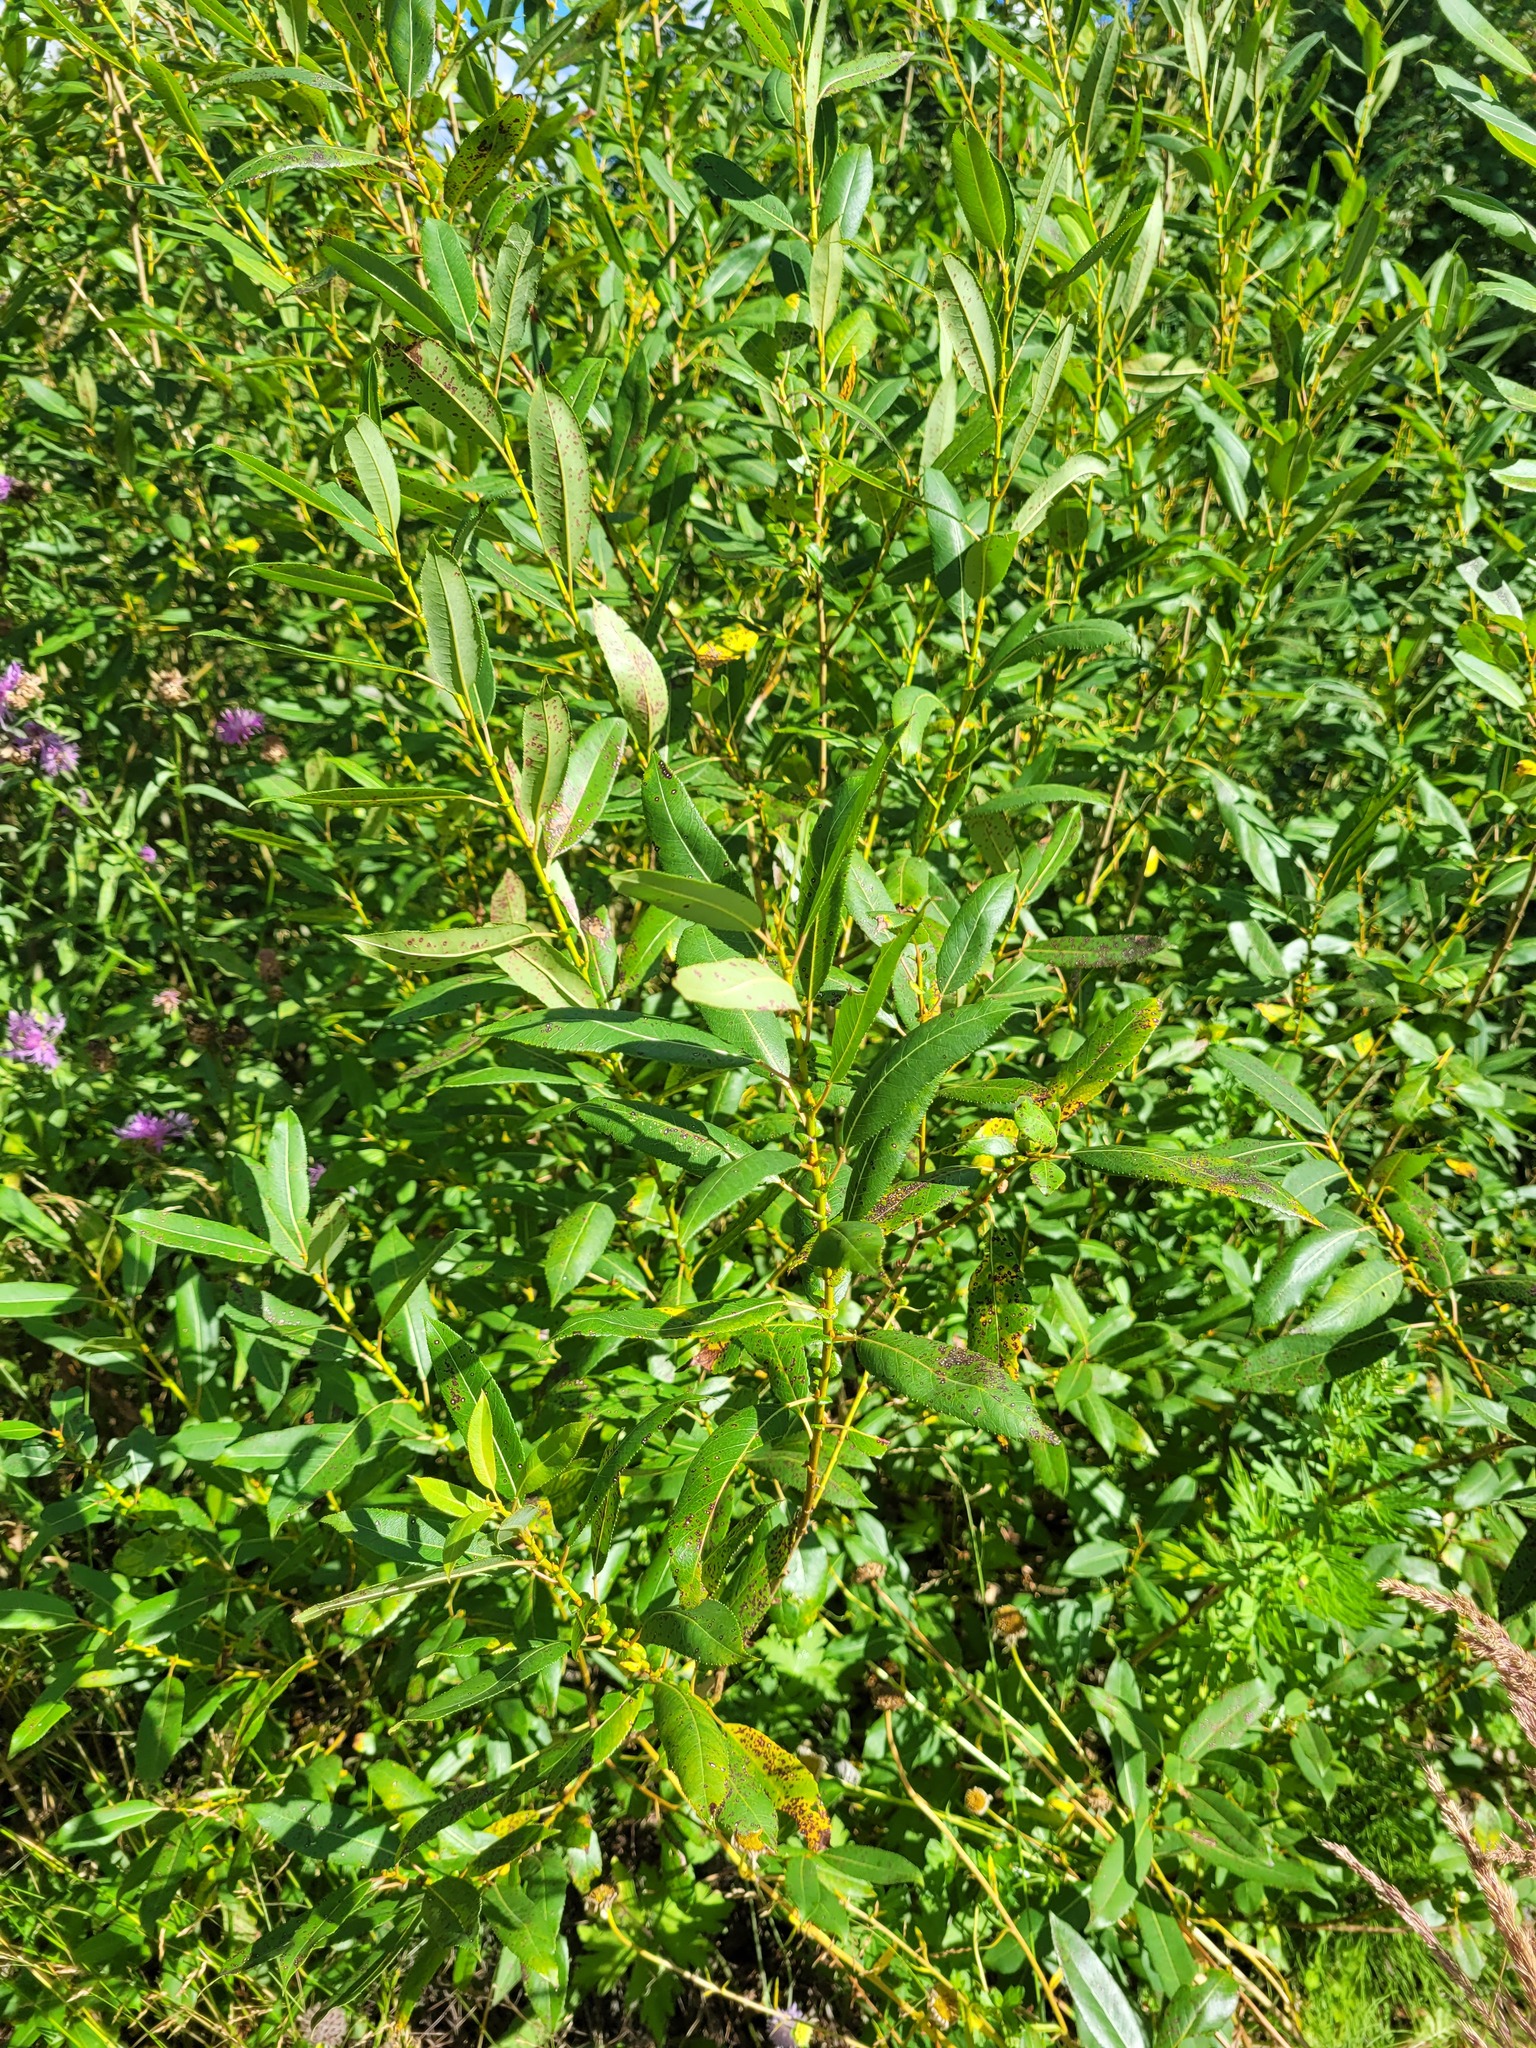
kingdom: Plantae
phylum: Tracheophyta
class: Magnoliopsida
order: Malpighiales
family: Salicaceae
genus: Salix
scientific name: Salix triandra
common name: Almond willow
